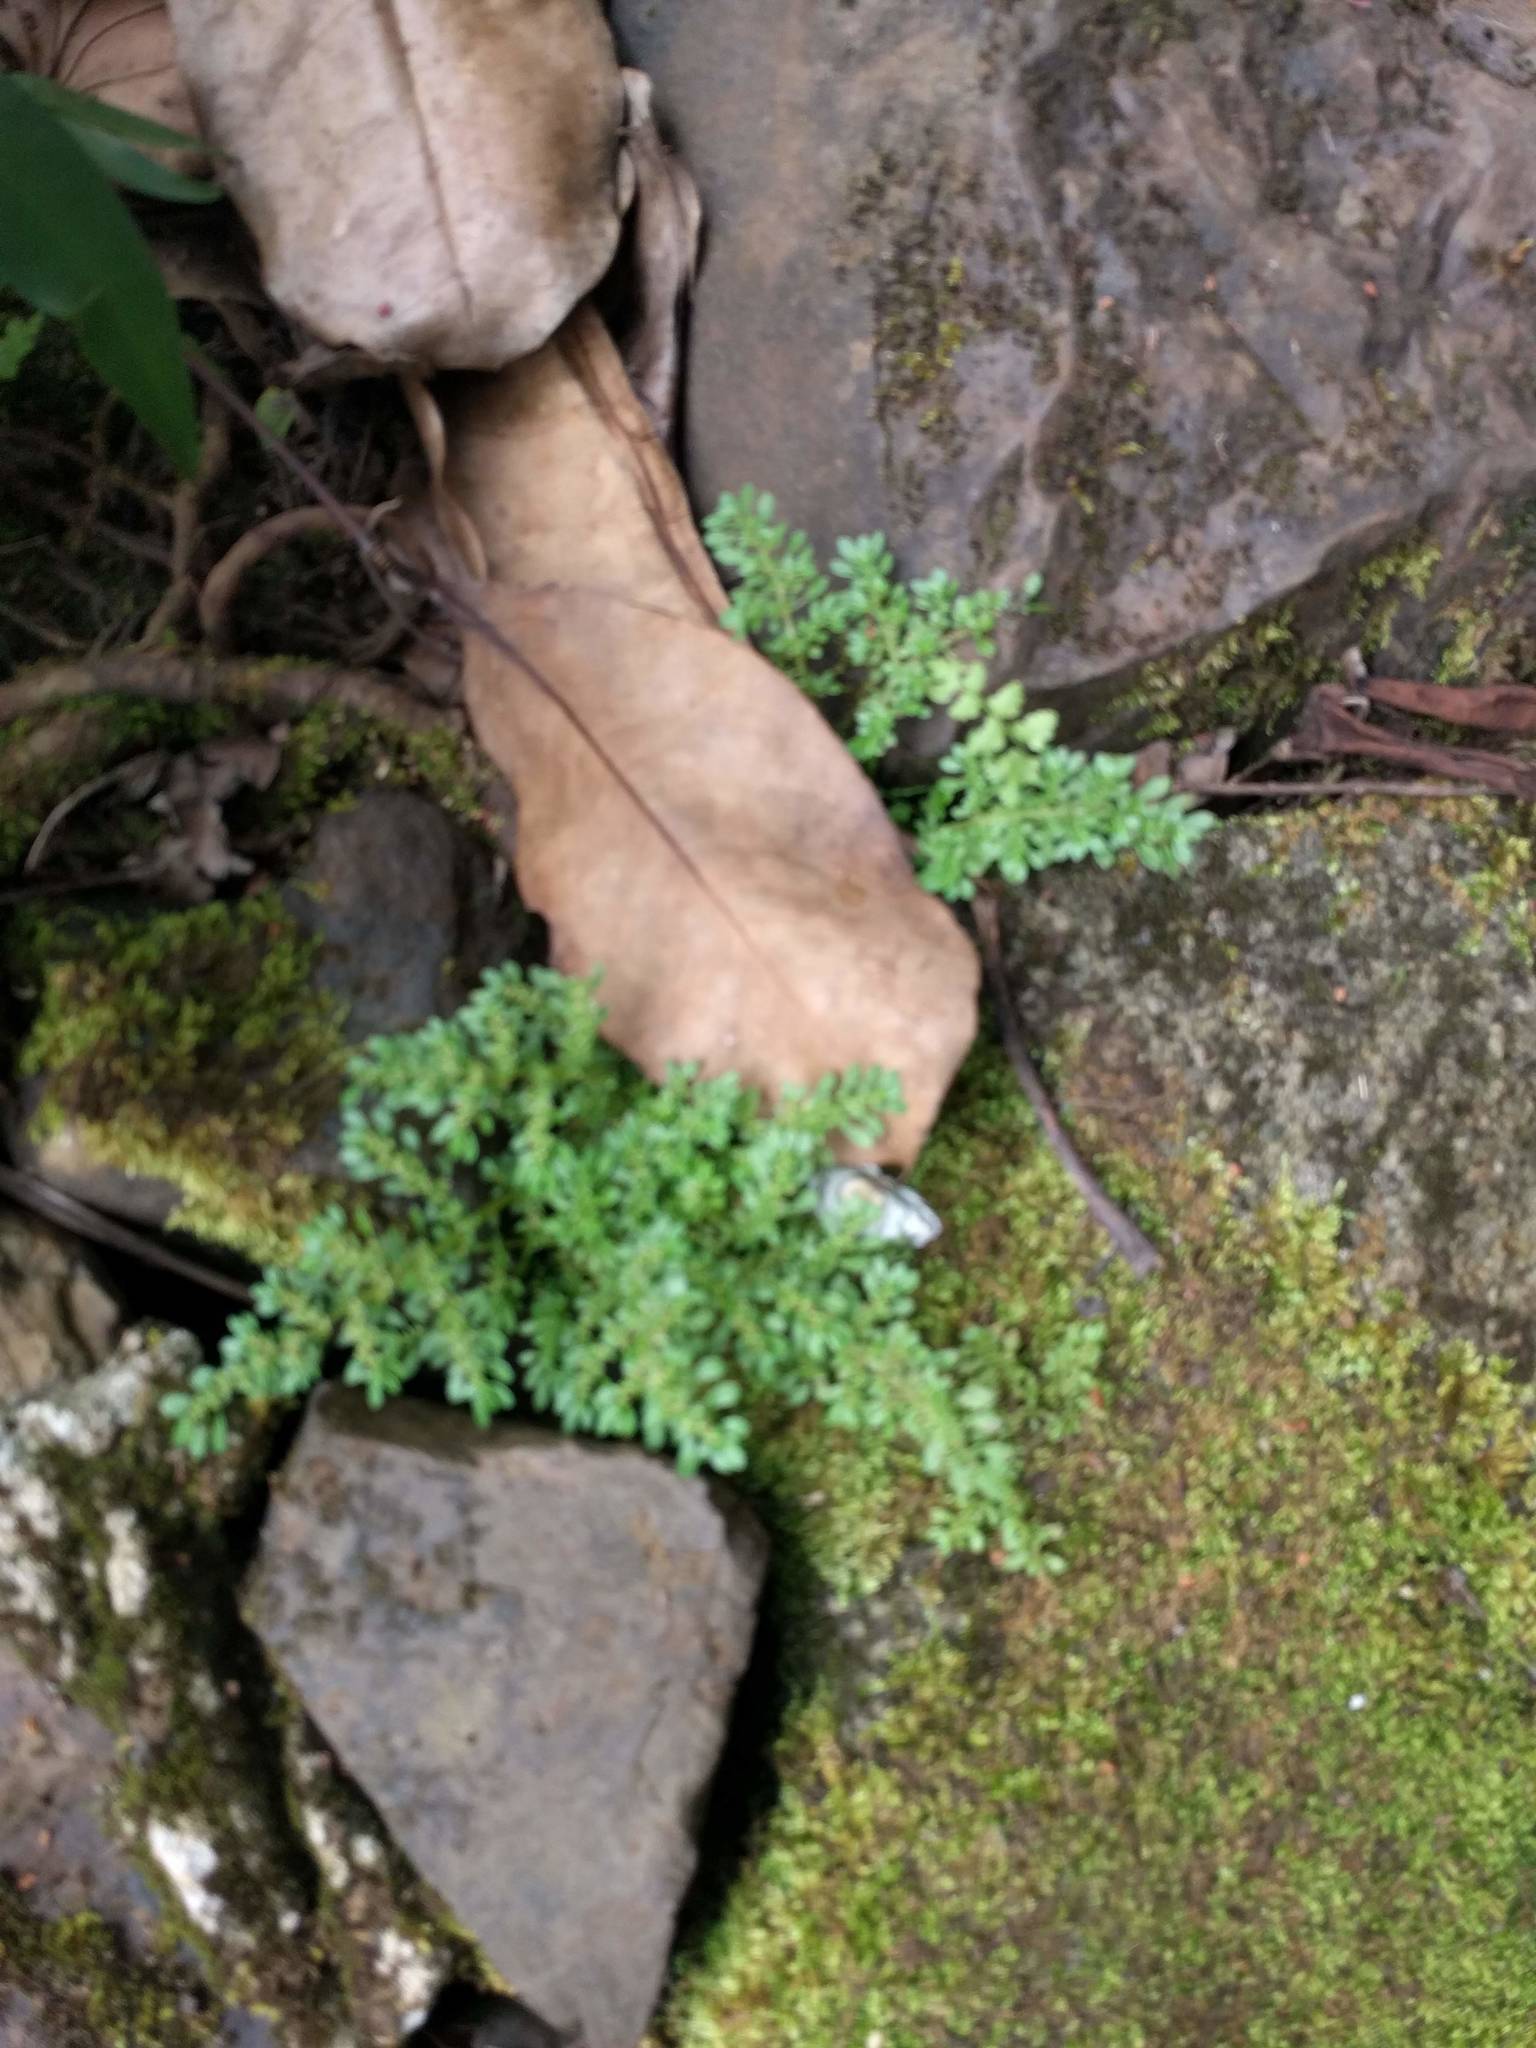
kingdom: Plantae
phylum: Tracheophyta
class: Magnoliopsida
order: Rosales
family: Urticaceae
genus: Pilea
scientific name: Pilea microphylla
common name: Artillery-plant
